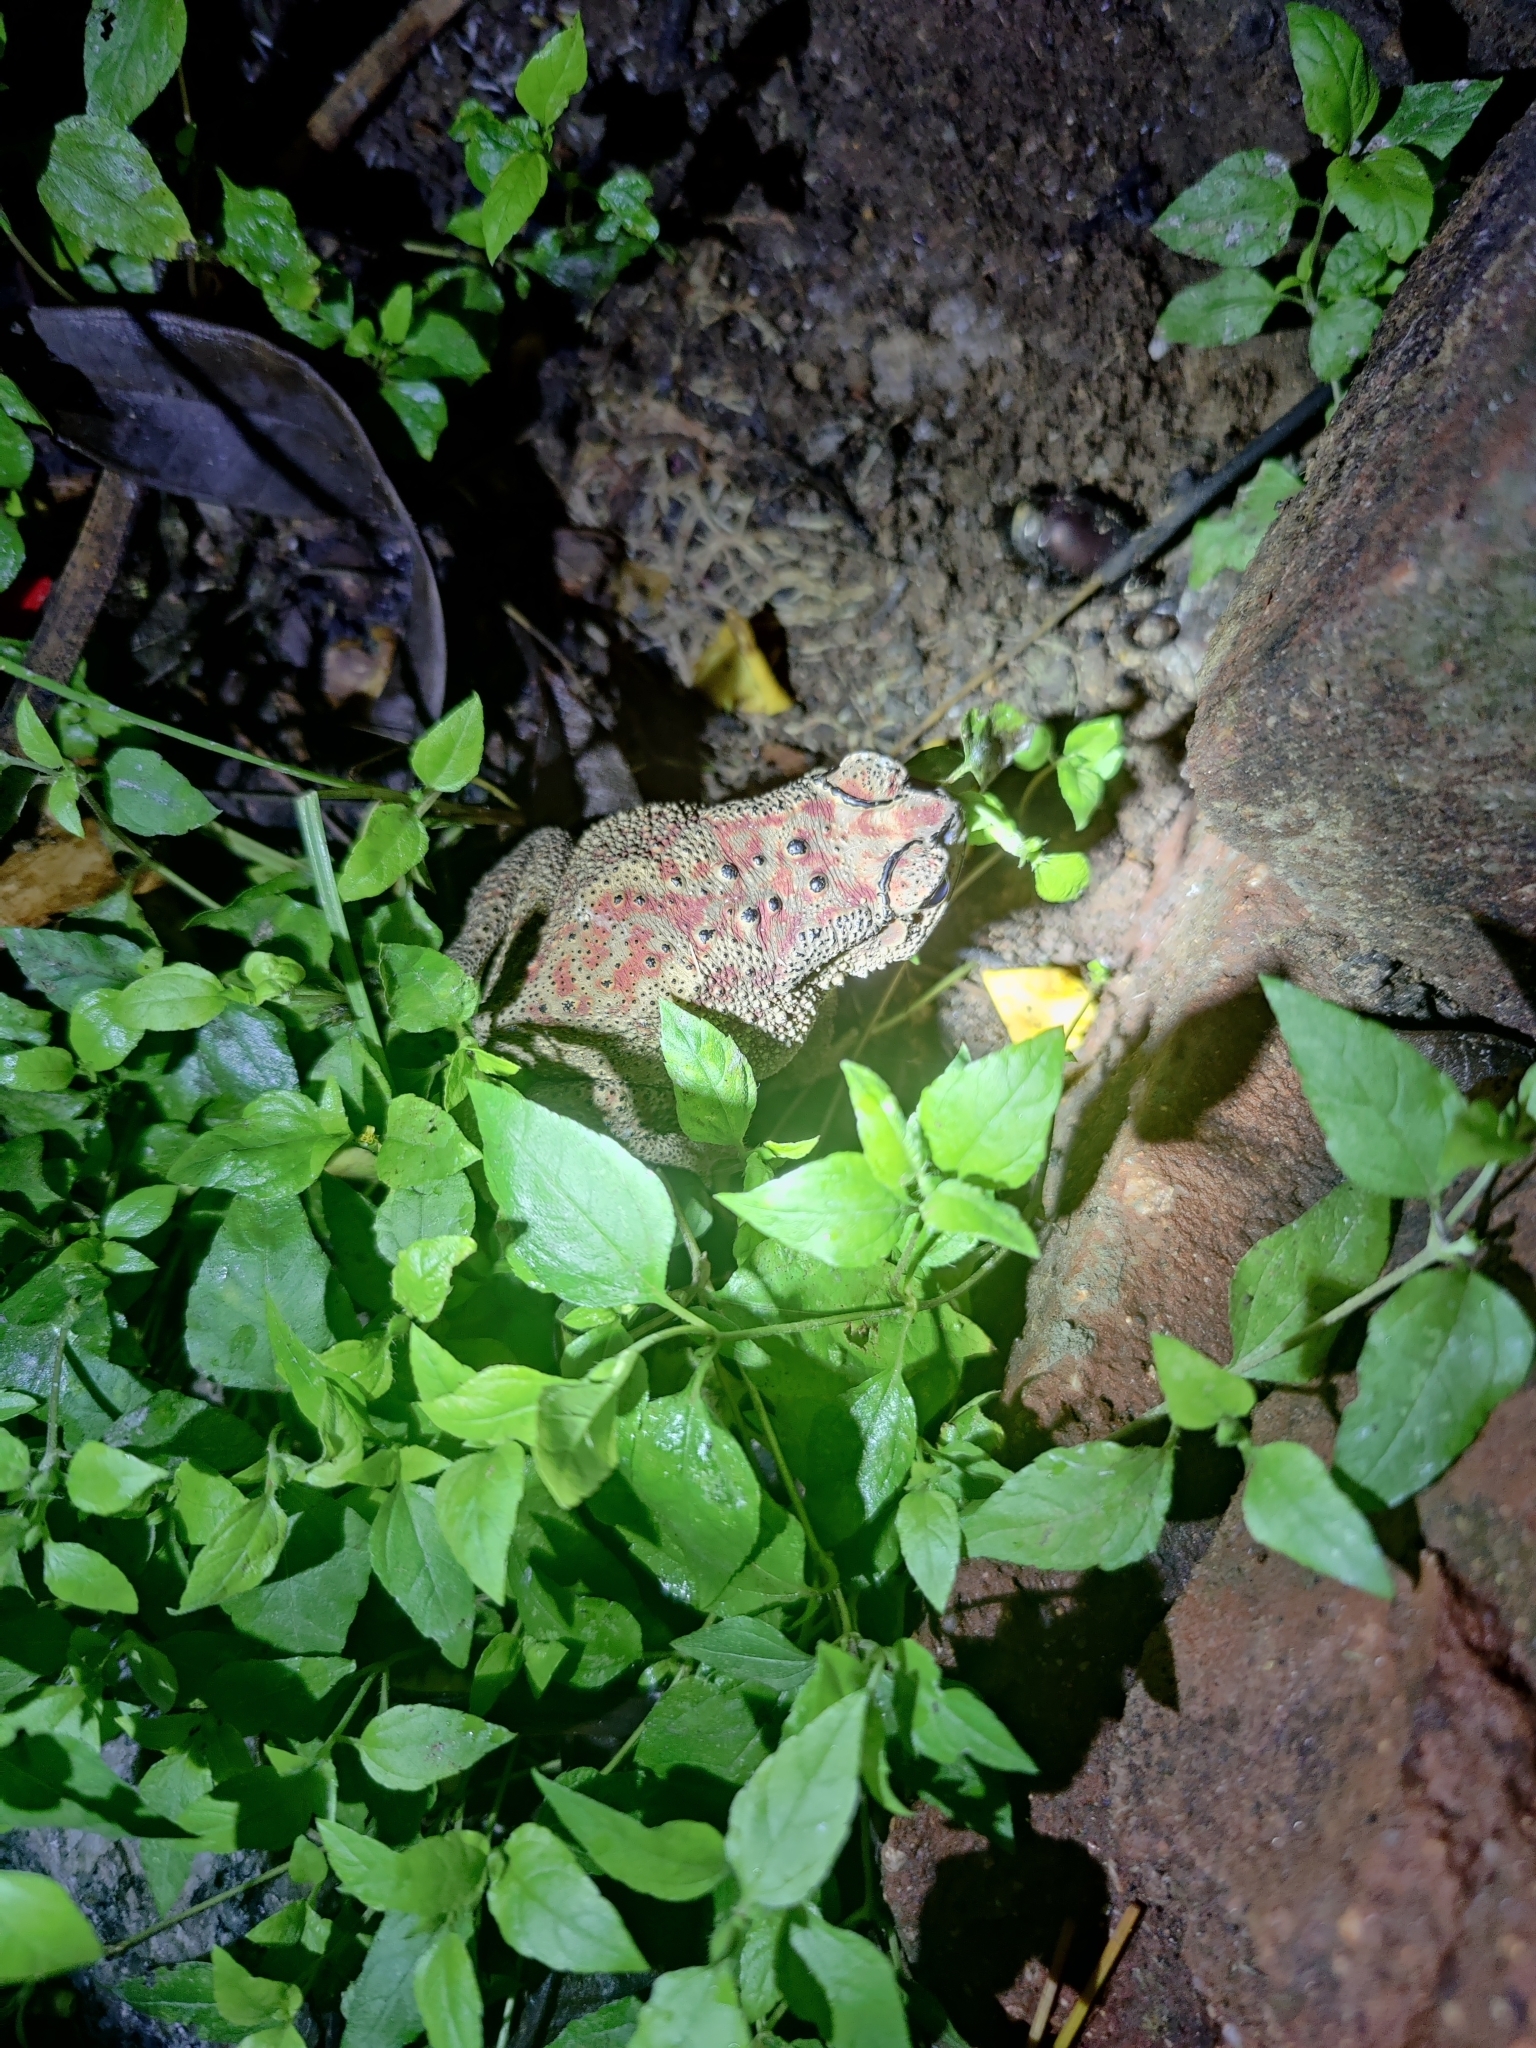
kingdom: Animalia
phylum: Chordata
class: Amphibia
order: Anura
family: Bufonidae
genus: Duttaphrynus
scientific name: Duttaphrynus melanostictus
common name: Common sunda toad
